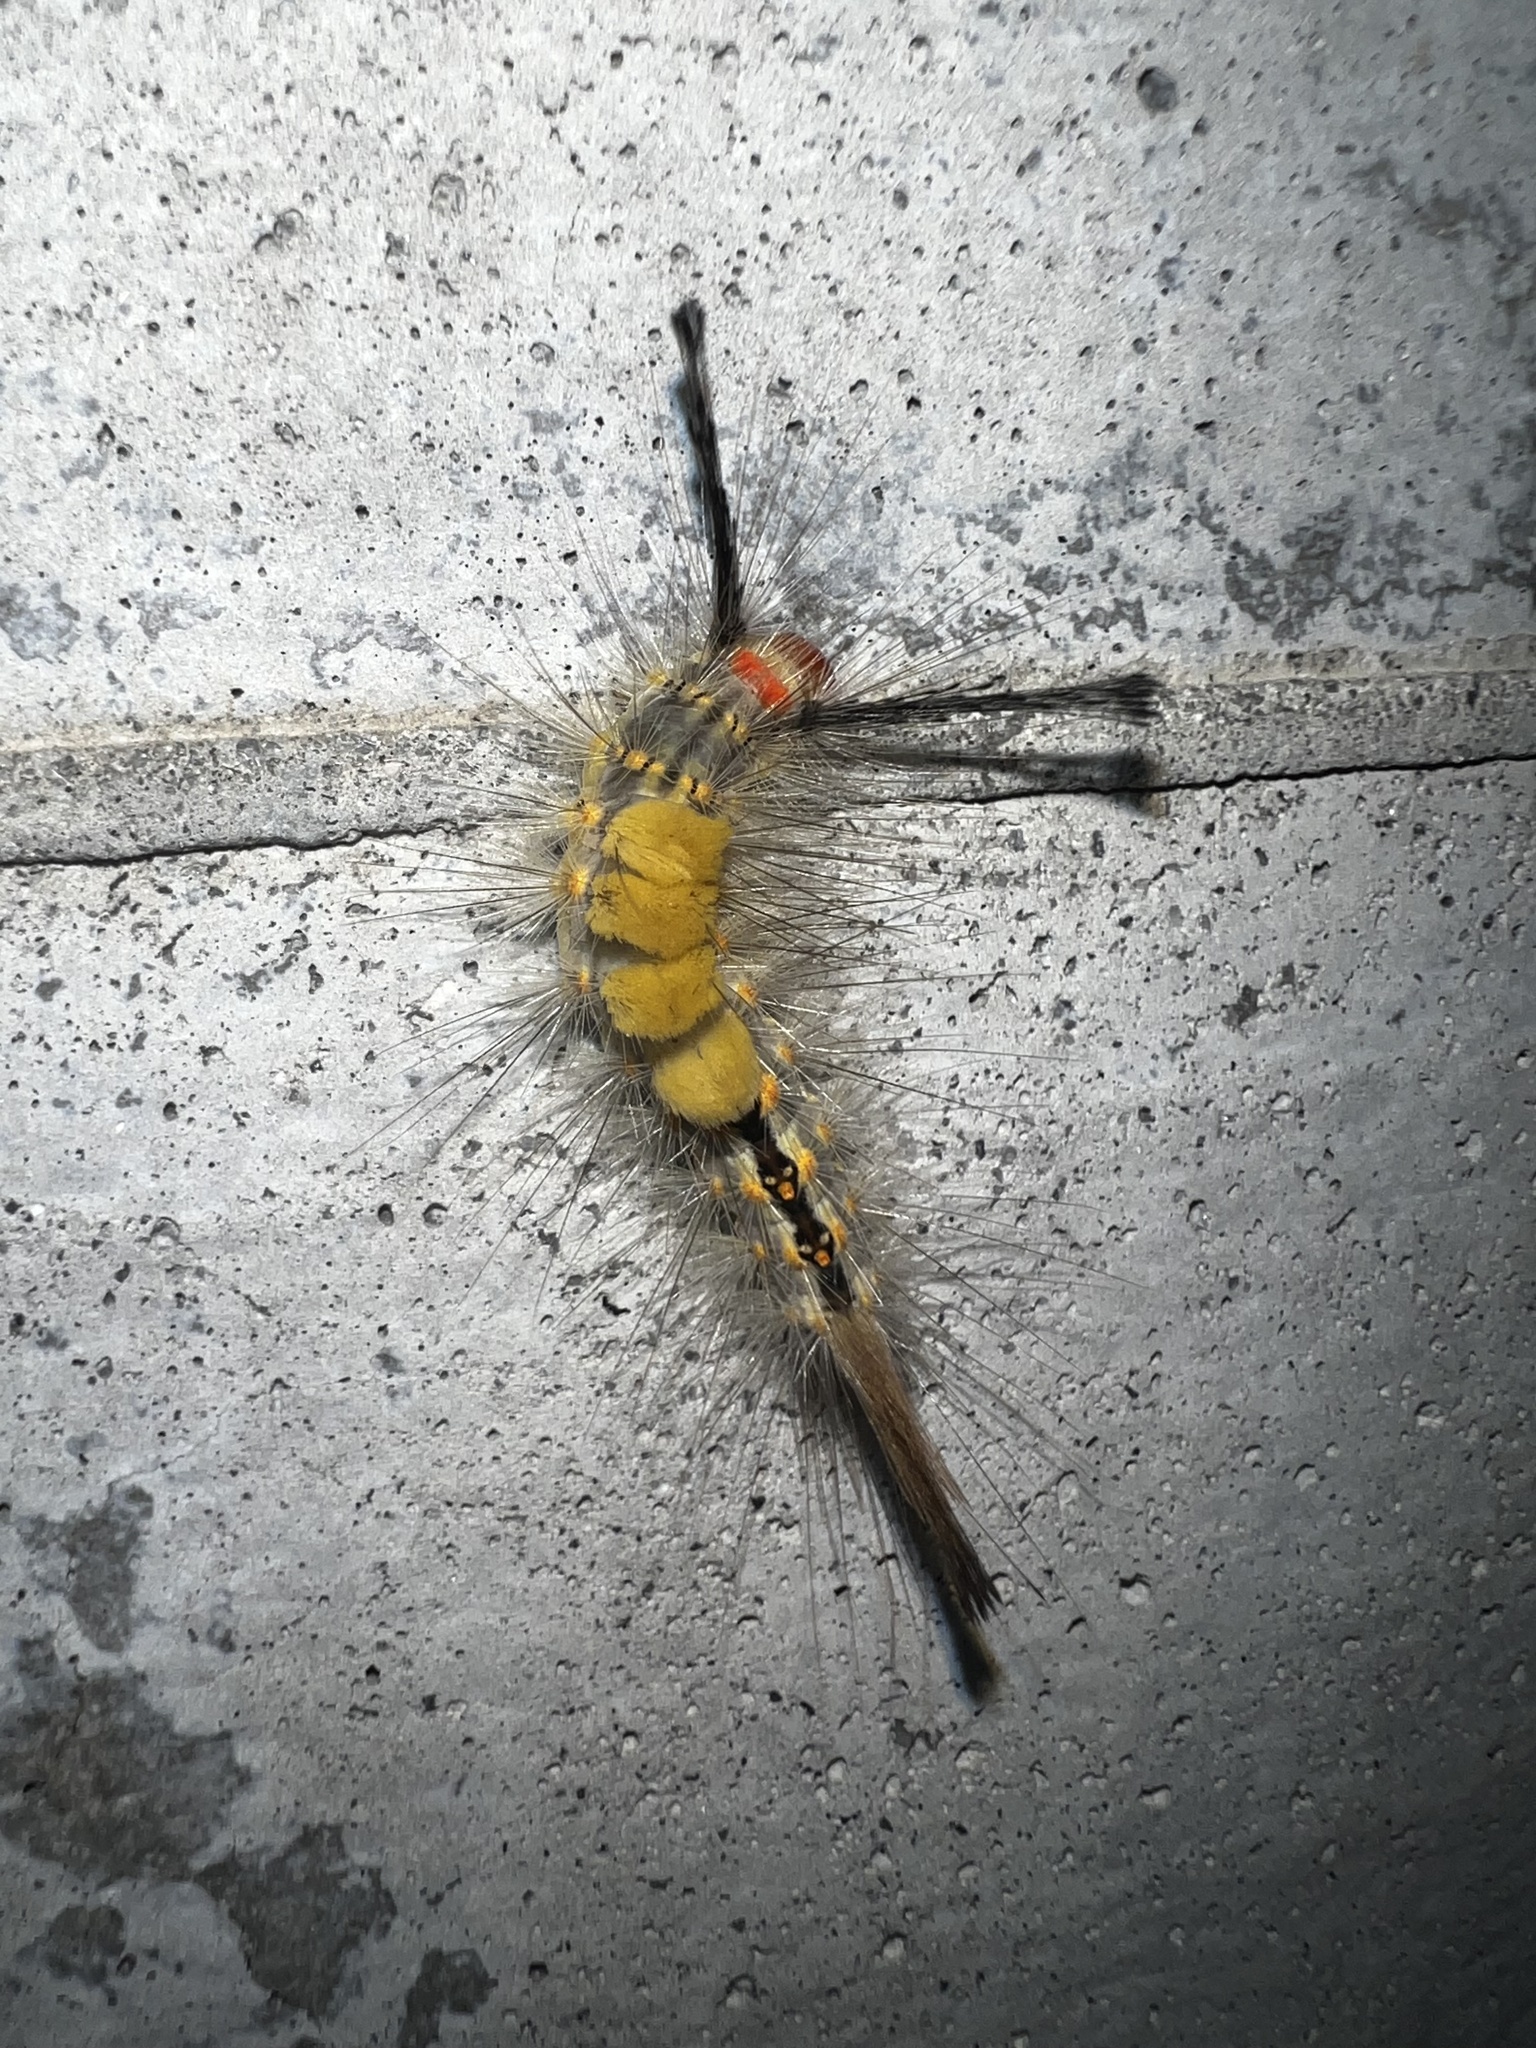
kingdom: Animalia
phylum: Arthropoda
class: Insecta
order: Lepidoptera
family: Erebidae
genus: Orgyia
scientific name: Orgyia detrita
